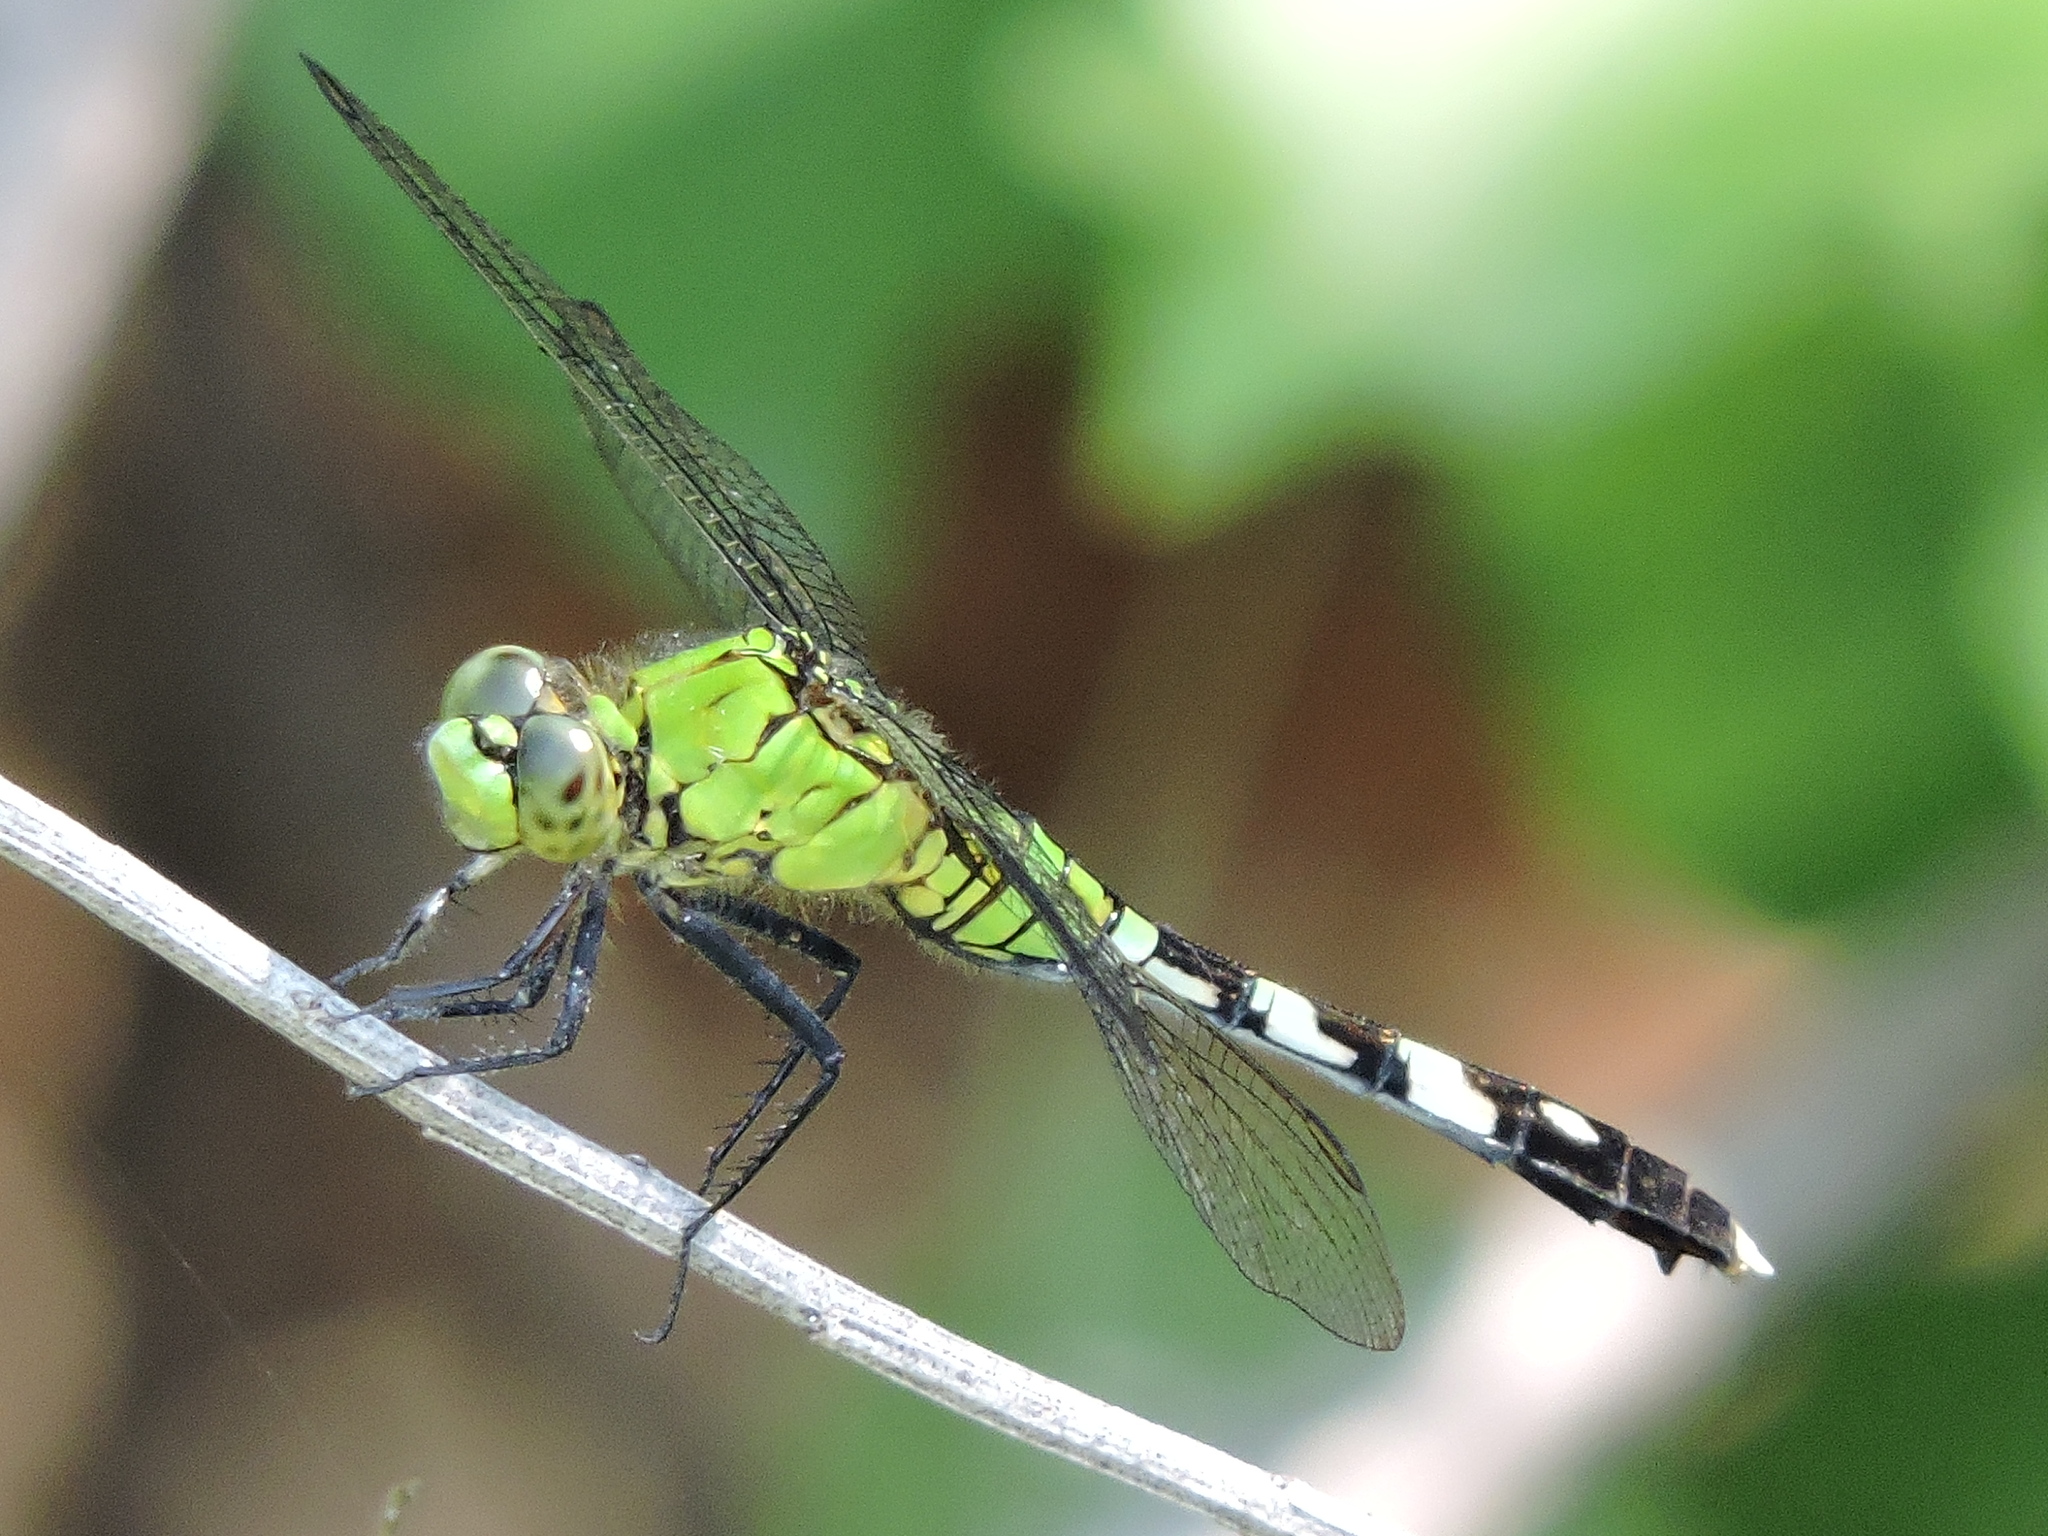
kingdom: Animalia
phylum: Arthropoda
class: Insecta
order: Odonata
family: Libellulidae
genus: Erythemis
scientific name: Erythemis simplicicollis
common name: Eastern pondhawk
